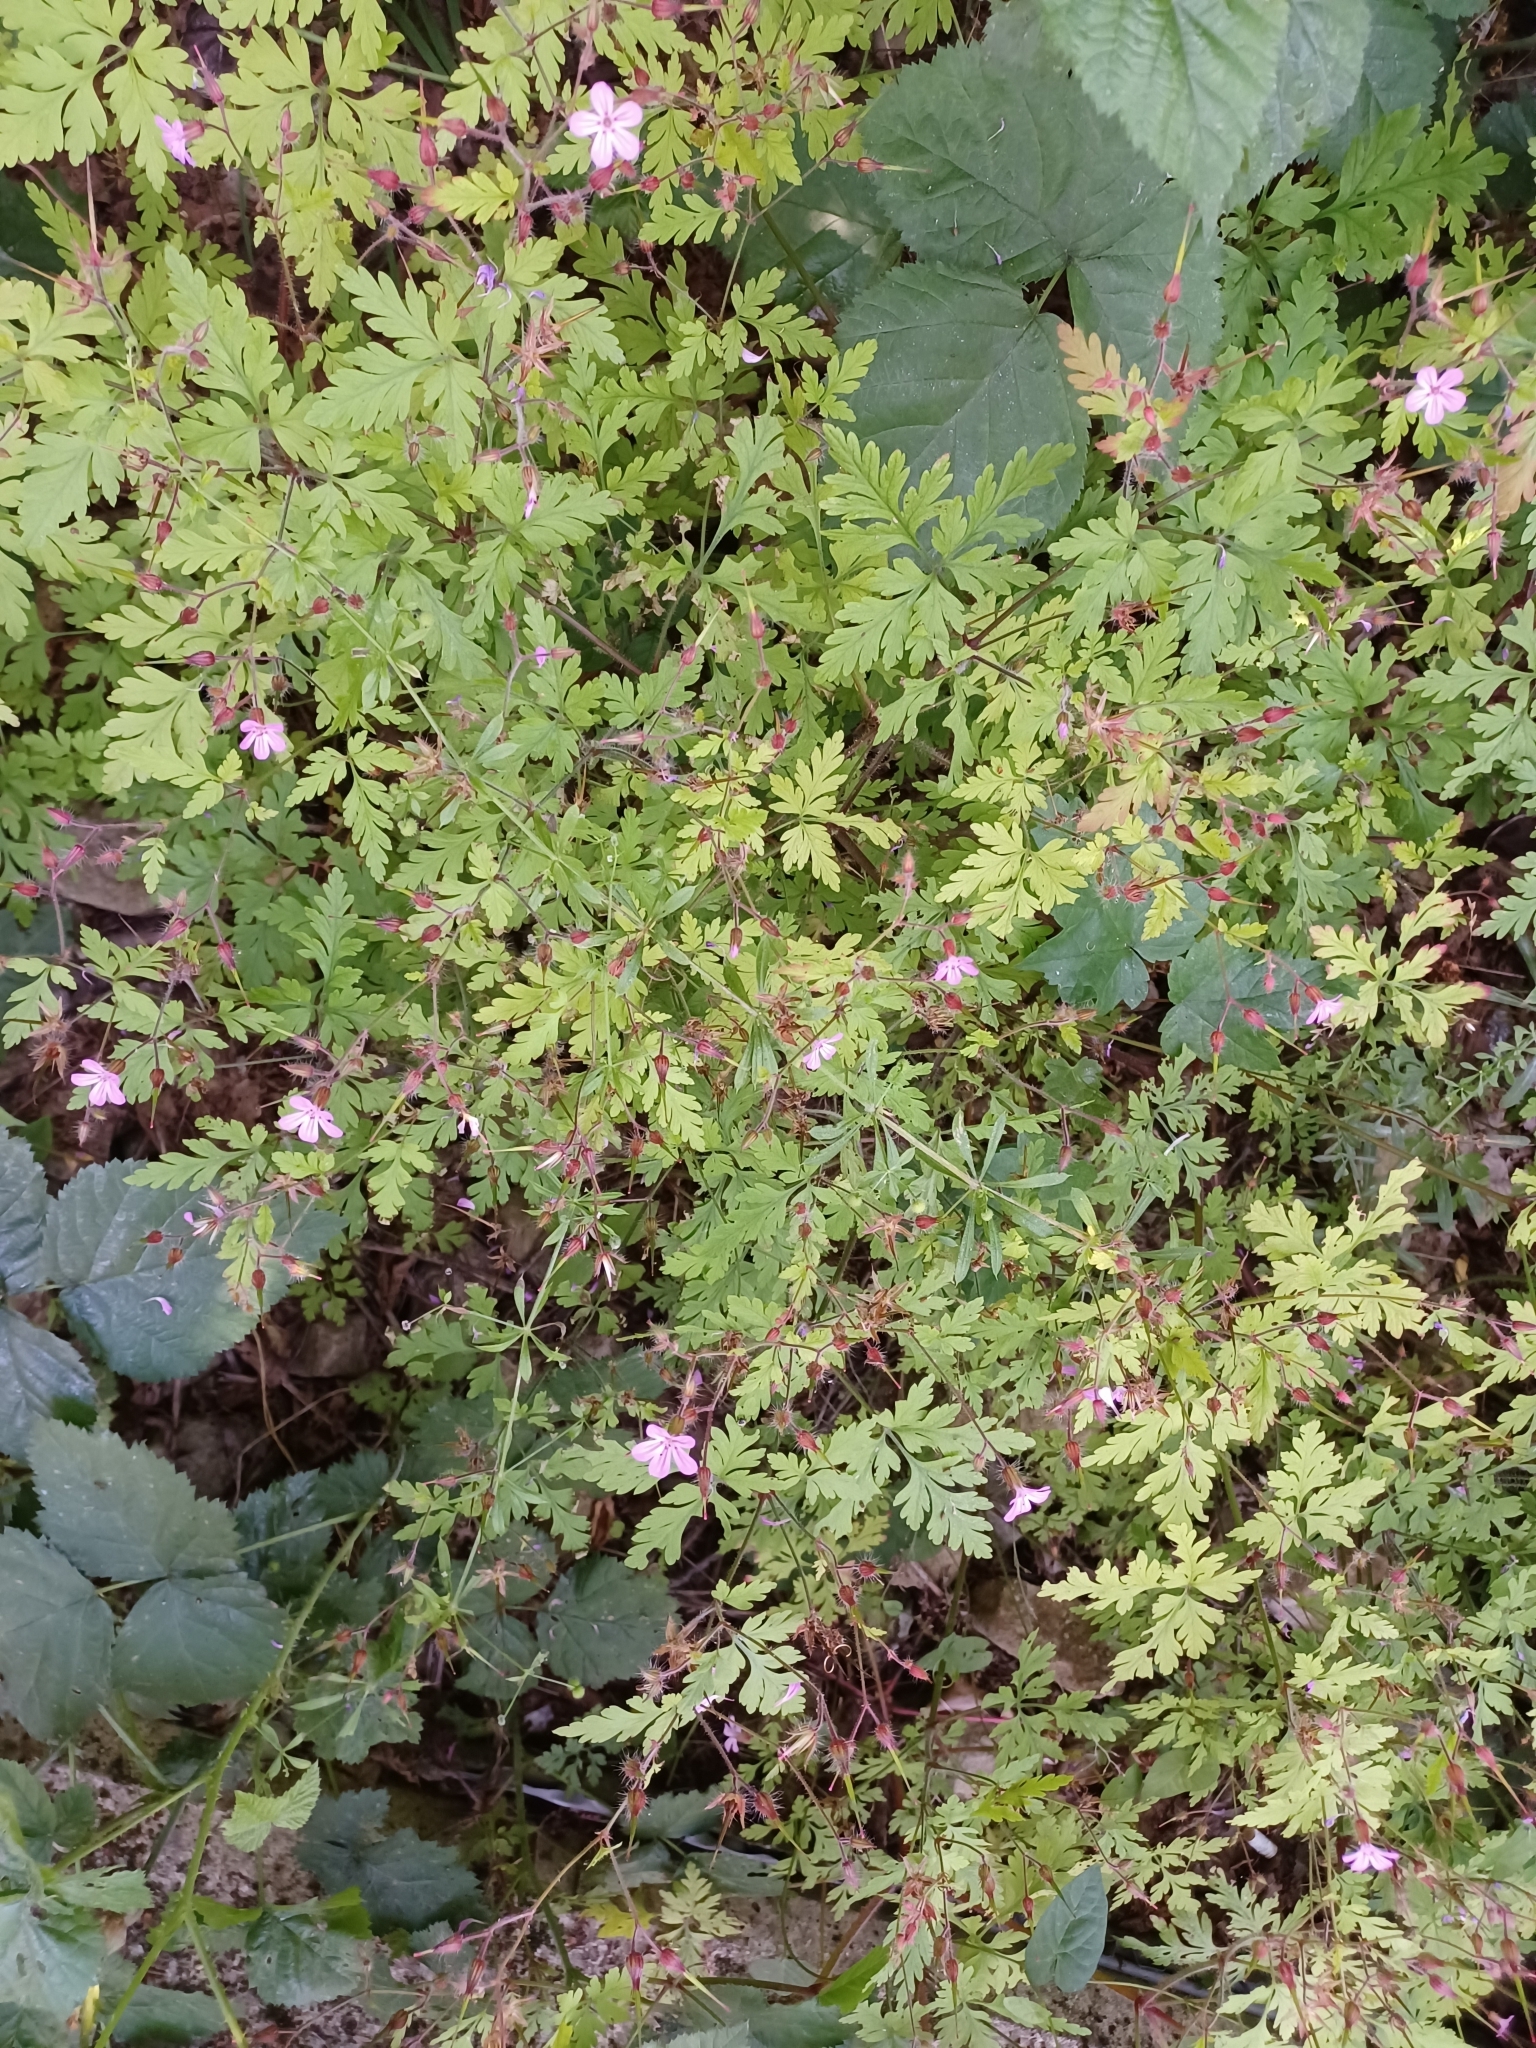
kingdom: Plantae
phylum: Tracheophyta
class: Magnoliopsida
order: Geraniales
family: Geraniaceae
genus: Geranium
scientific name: Geranium robertianum
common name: Herb-robert
